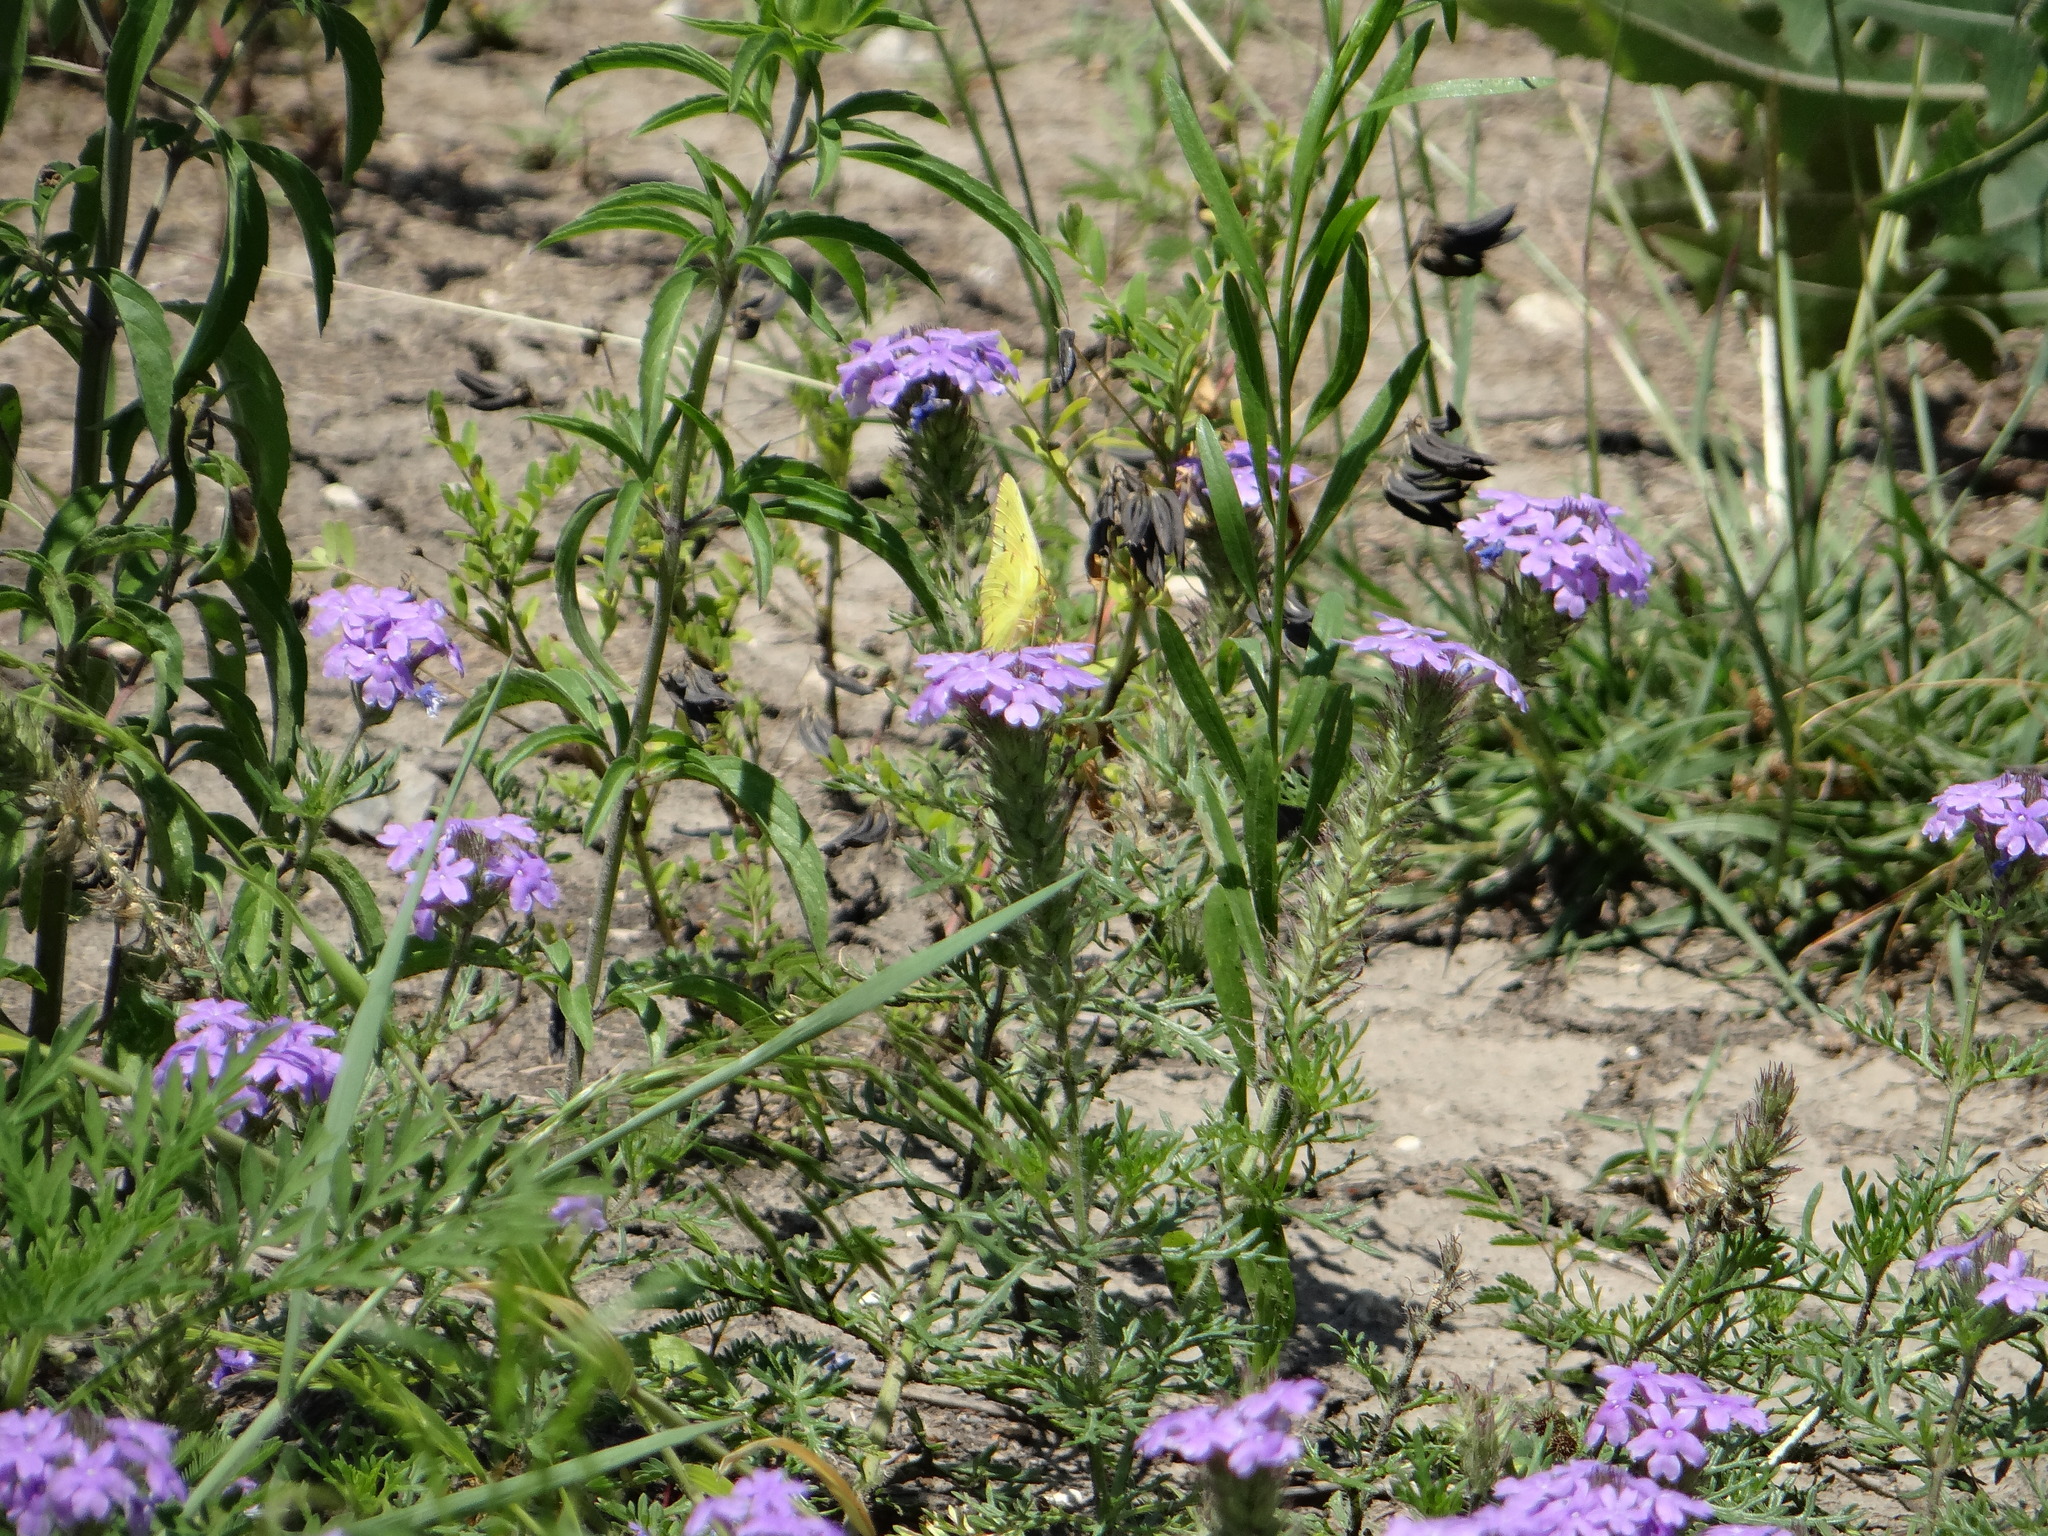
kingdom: Plantae
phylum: Tracheophyta
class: Magnoliopsida
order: Lamiales
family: Verbenaceae
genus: Verbena
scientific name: Verbena bipinnatifida
